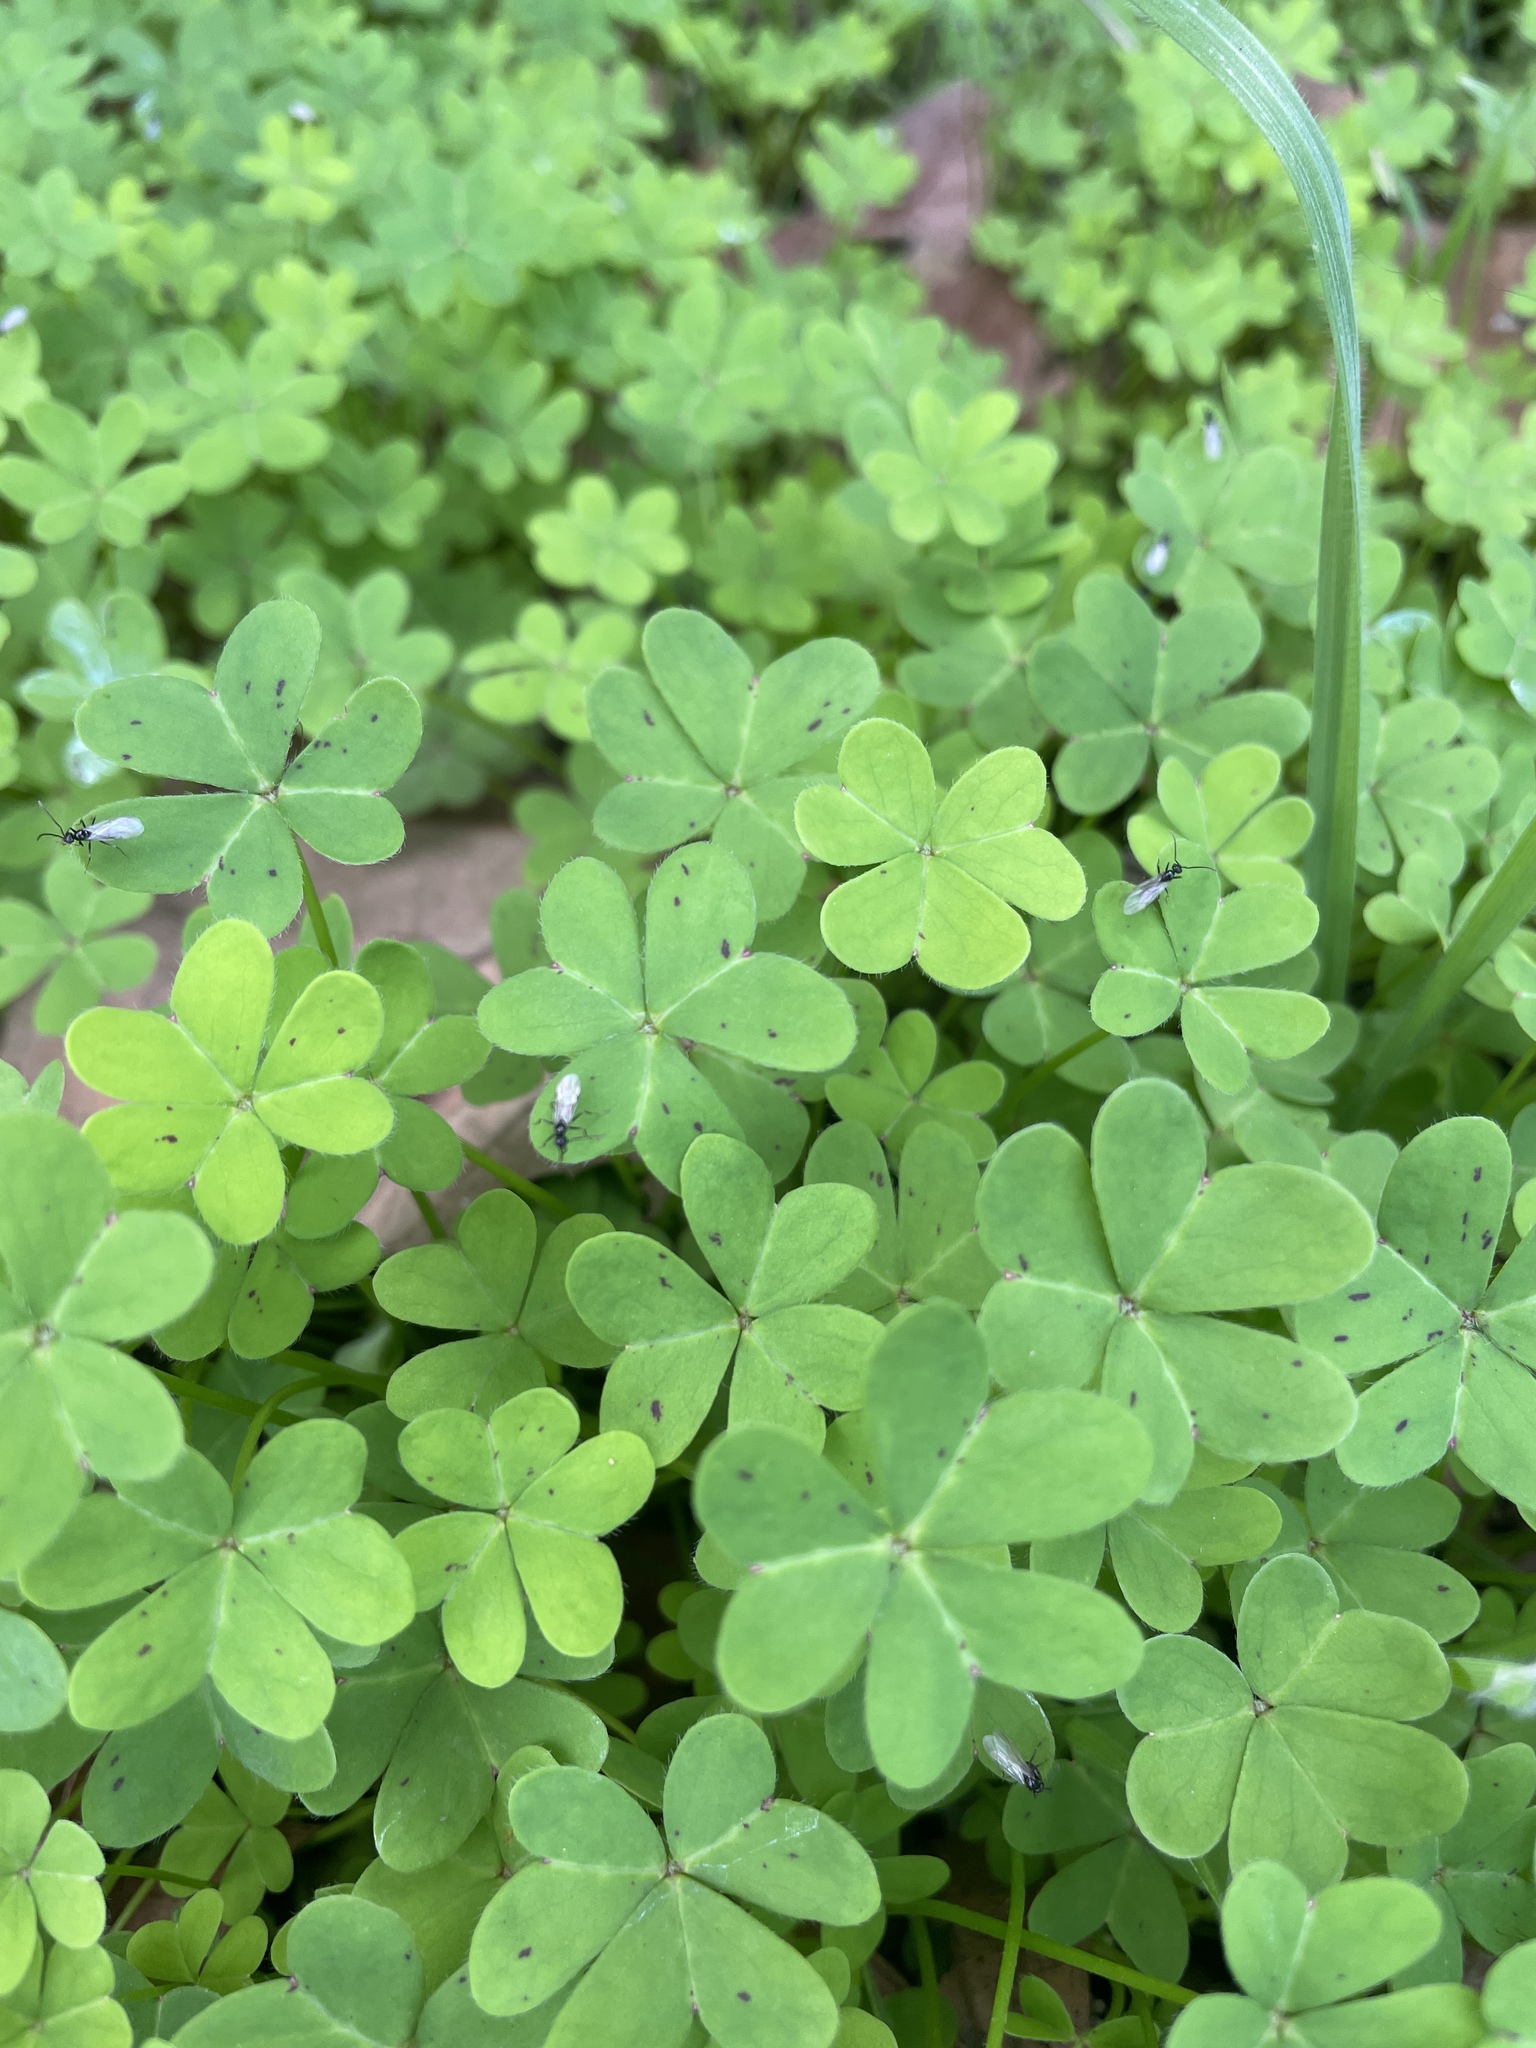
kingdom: Plantae
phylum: Tracheophyta
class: Magnoliopsida
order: Oxalidales
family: Oxalidaceae
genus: Oxalis
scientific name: Oxalis pes-caprae
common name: Bermuda-buttercup
